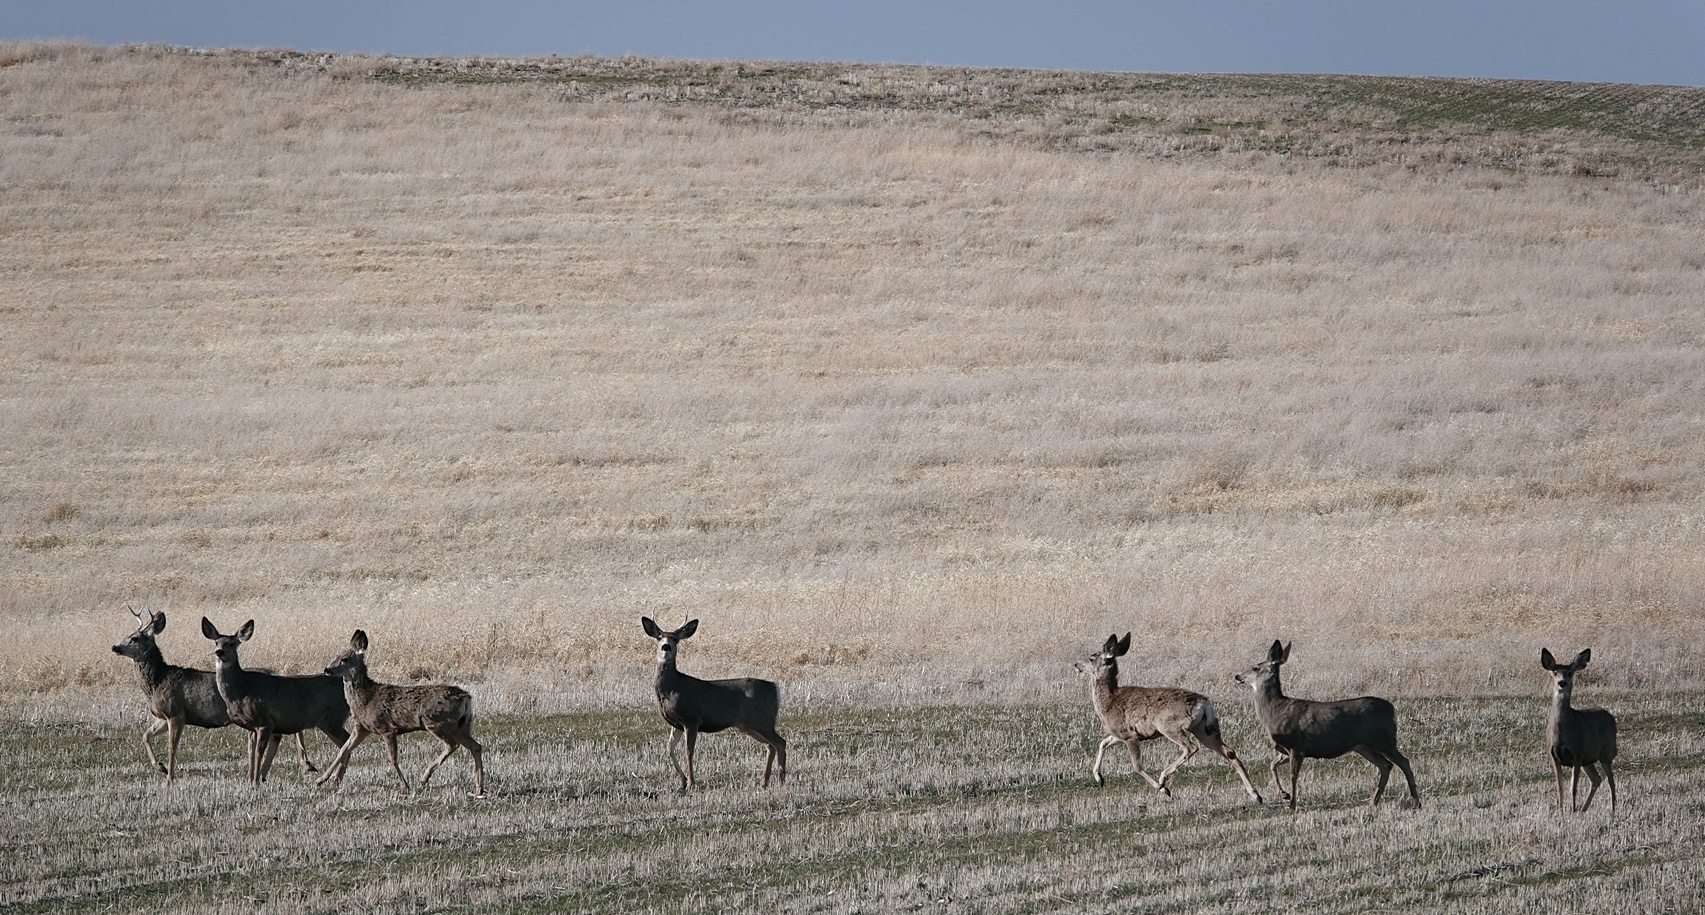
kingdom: Animalia
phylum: Chordata
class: Mammalia
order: Artiodactyla
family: Cervidae
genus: Odocoileus
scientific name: Odocoileus hemionus
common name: Mule deer
